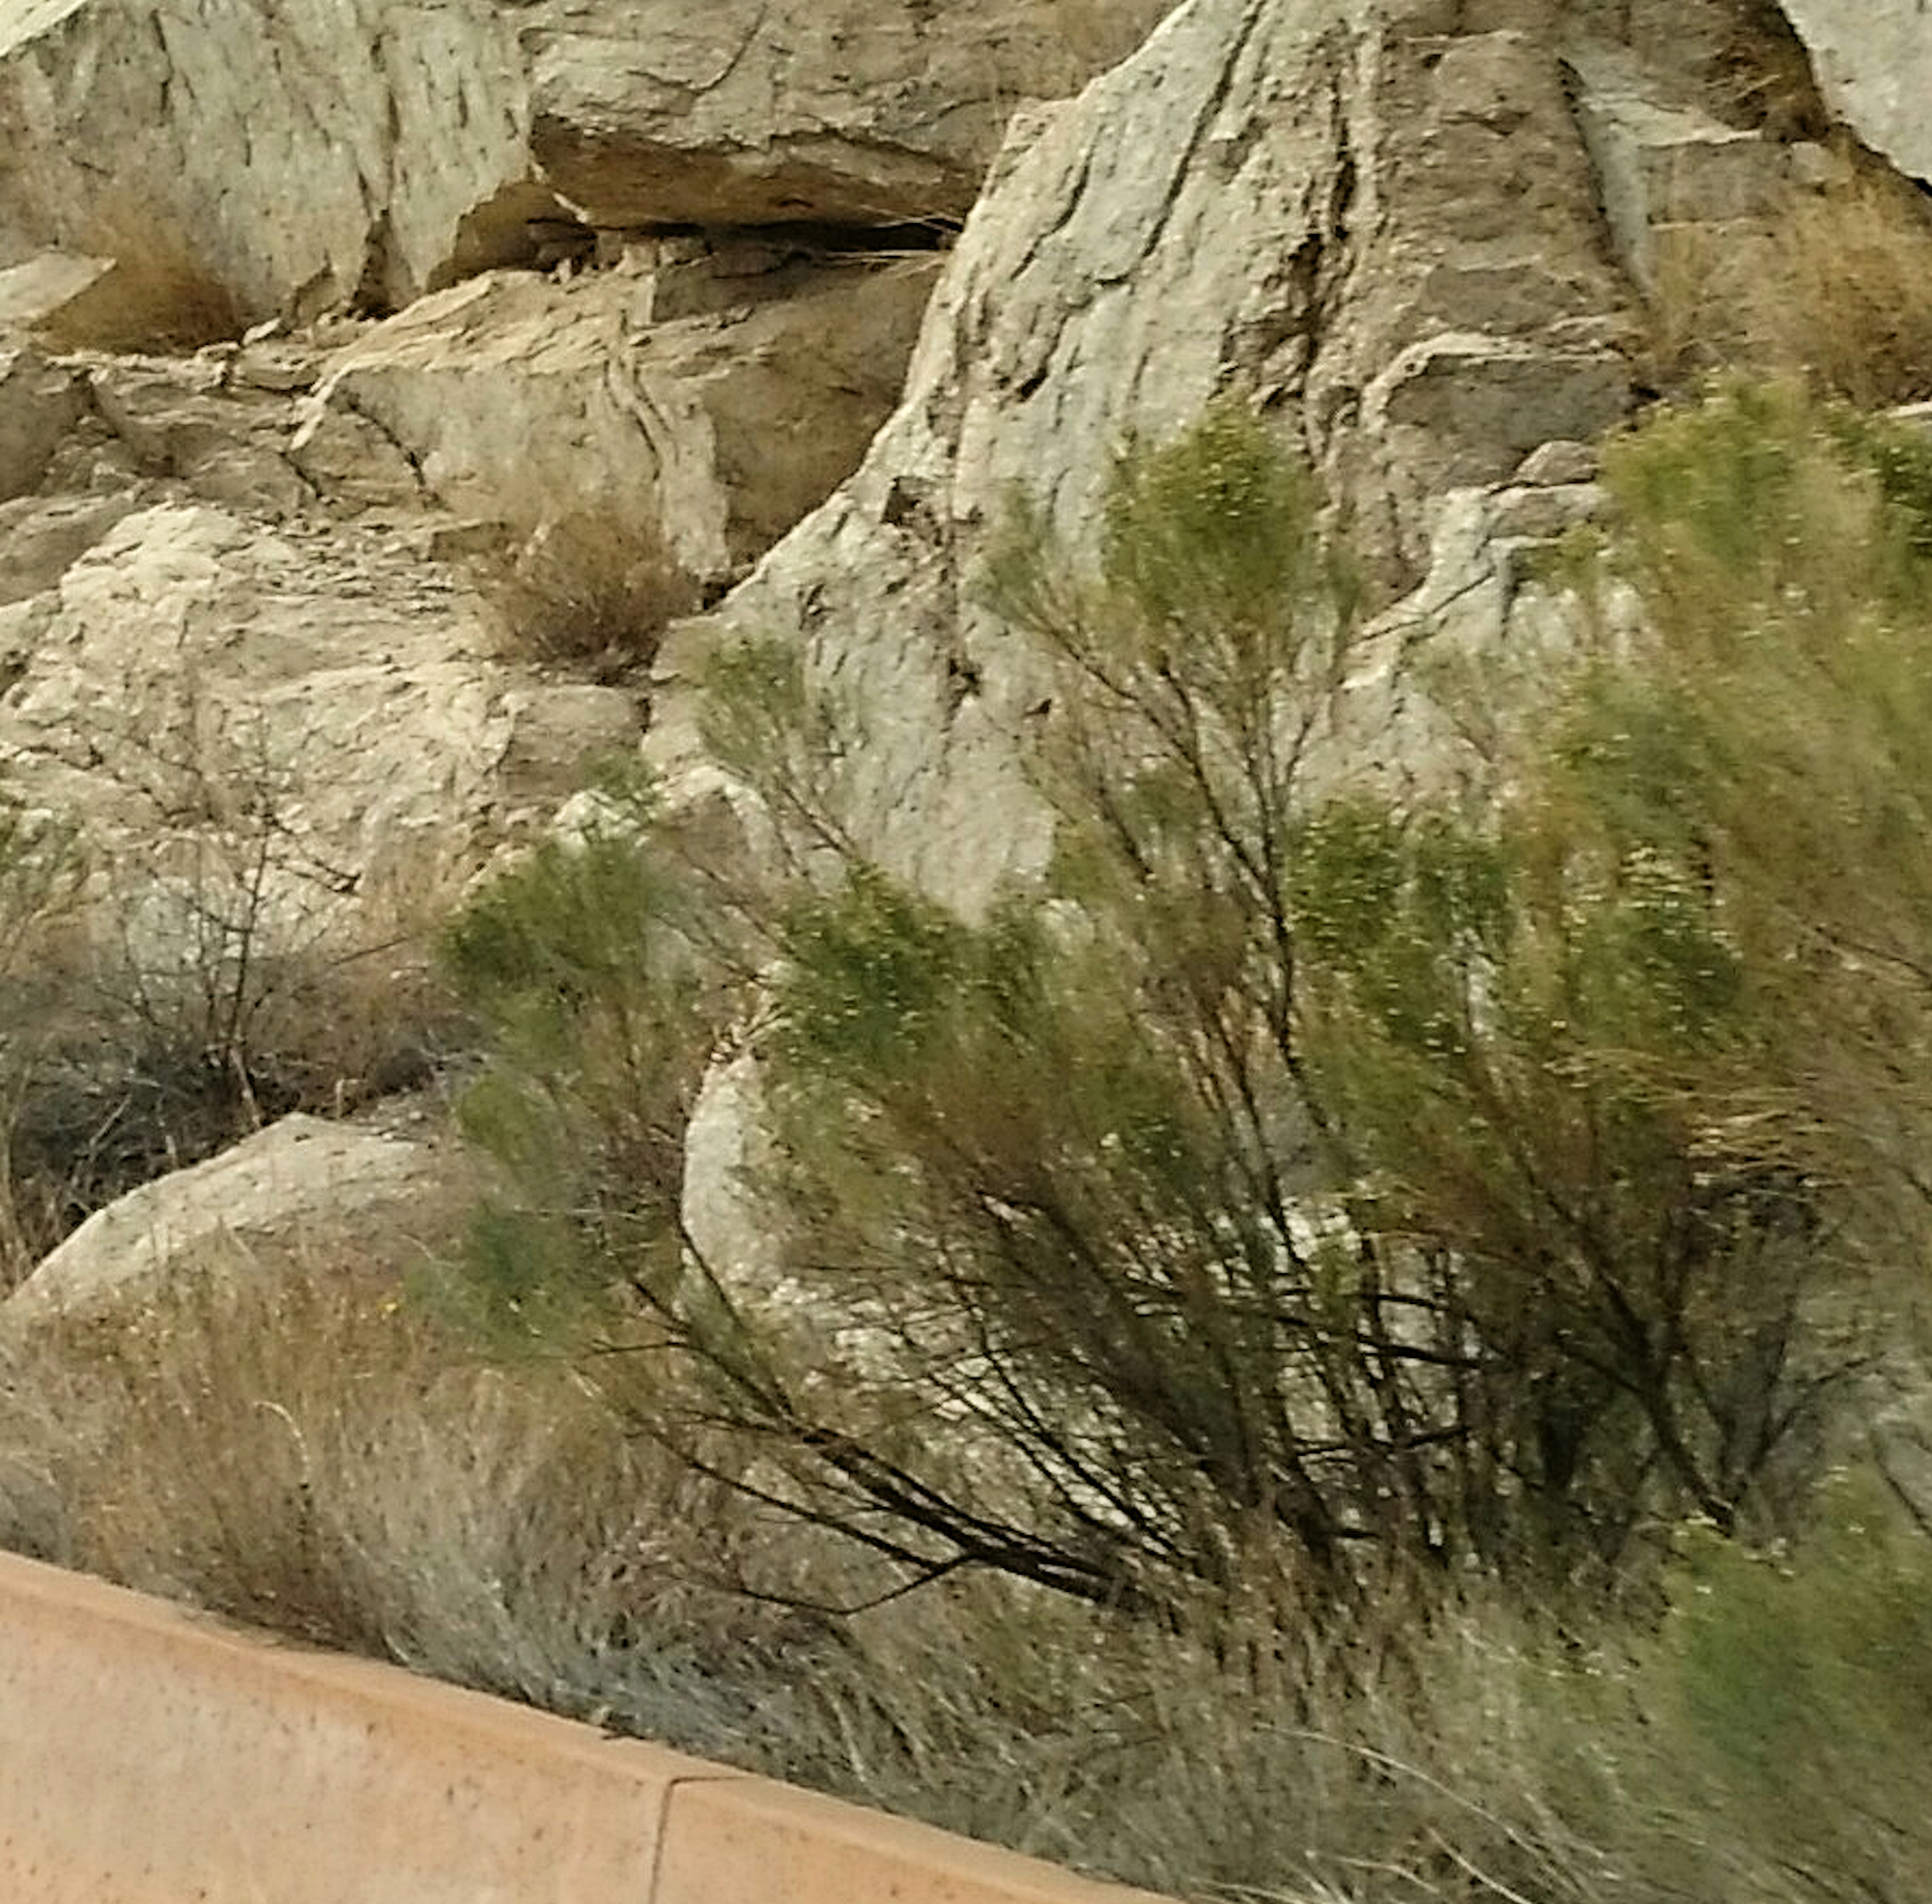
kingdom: Plantae
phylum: Tracheophyta
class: Magnoliopsida
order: Asterales
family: Asteraceae
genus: Baccharis
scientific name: Baccharis sarothroides
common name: Desert-broom
